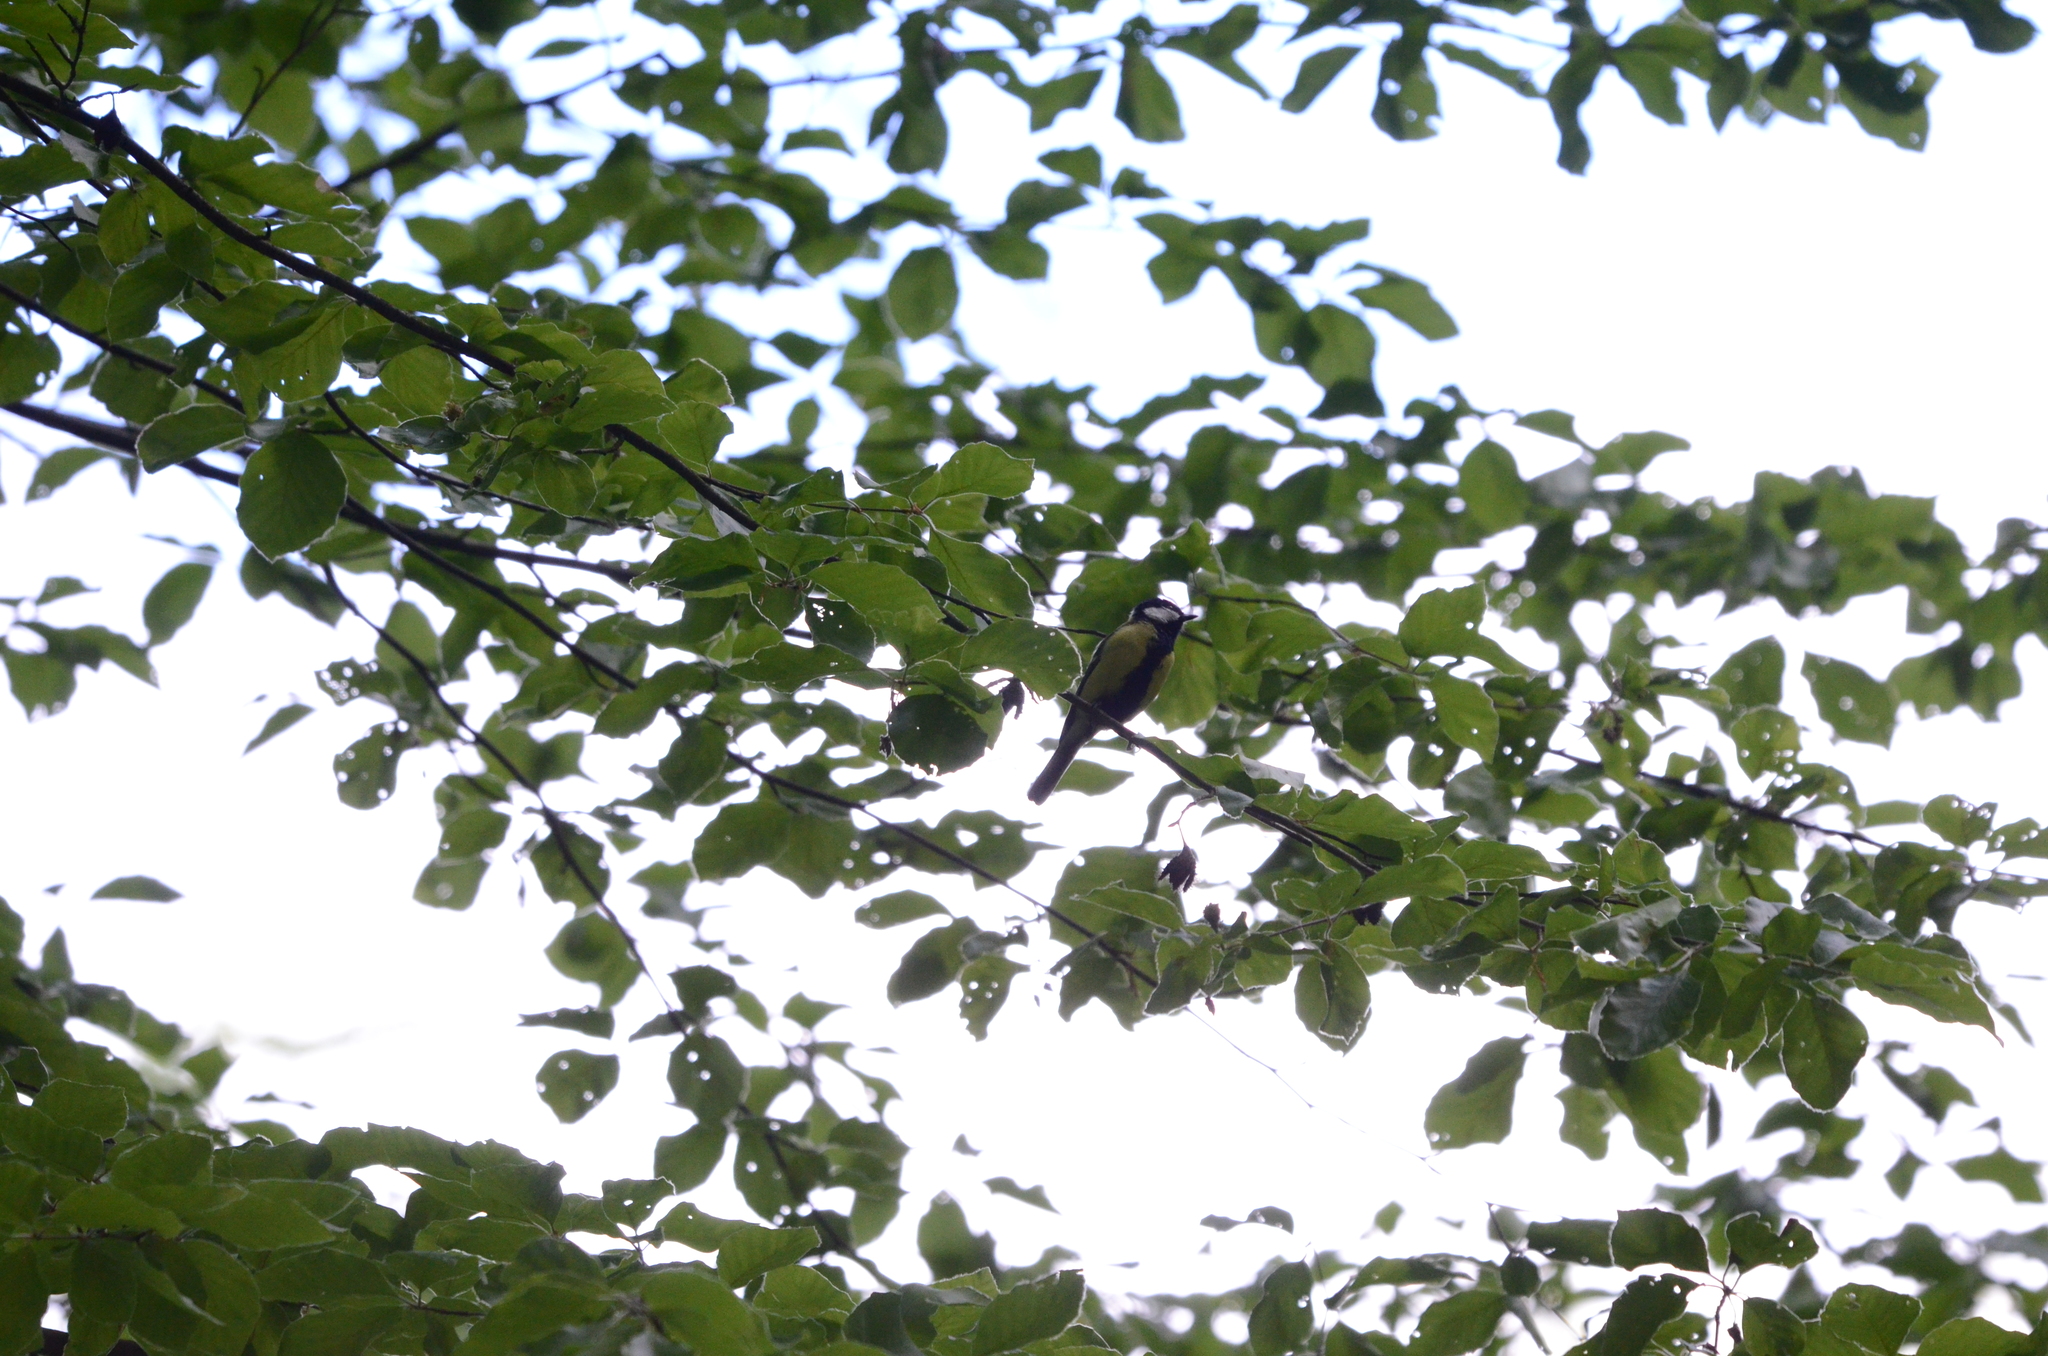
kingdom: Animalia
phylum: Chordata
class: Aves
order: Passeriformes
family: Paridae
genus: Parus
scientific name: Parus major
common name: Great tit
